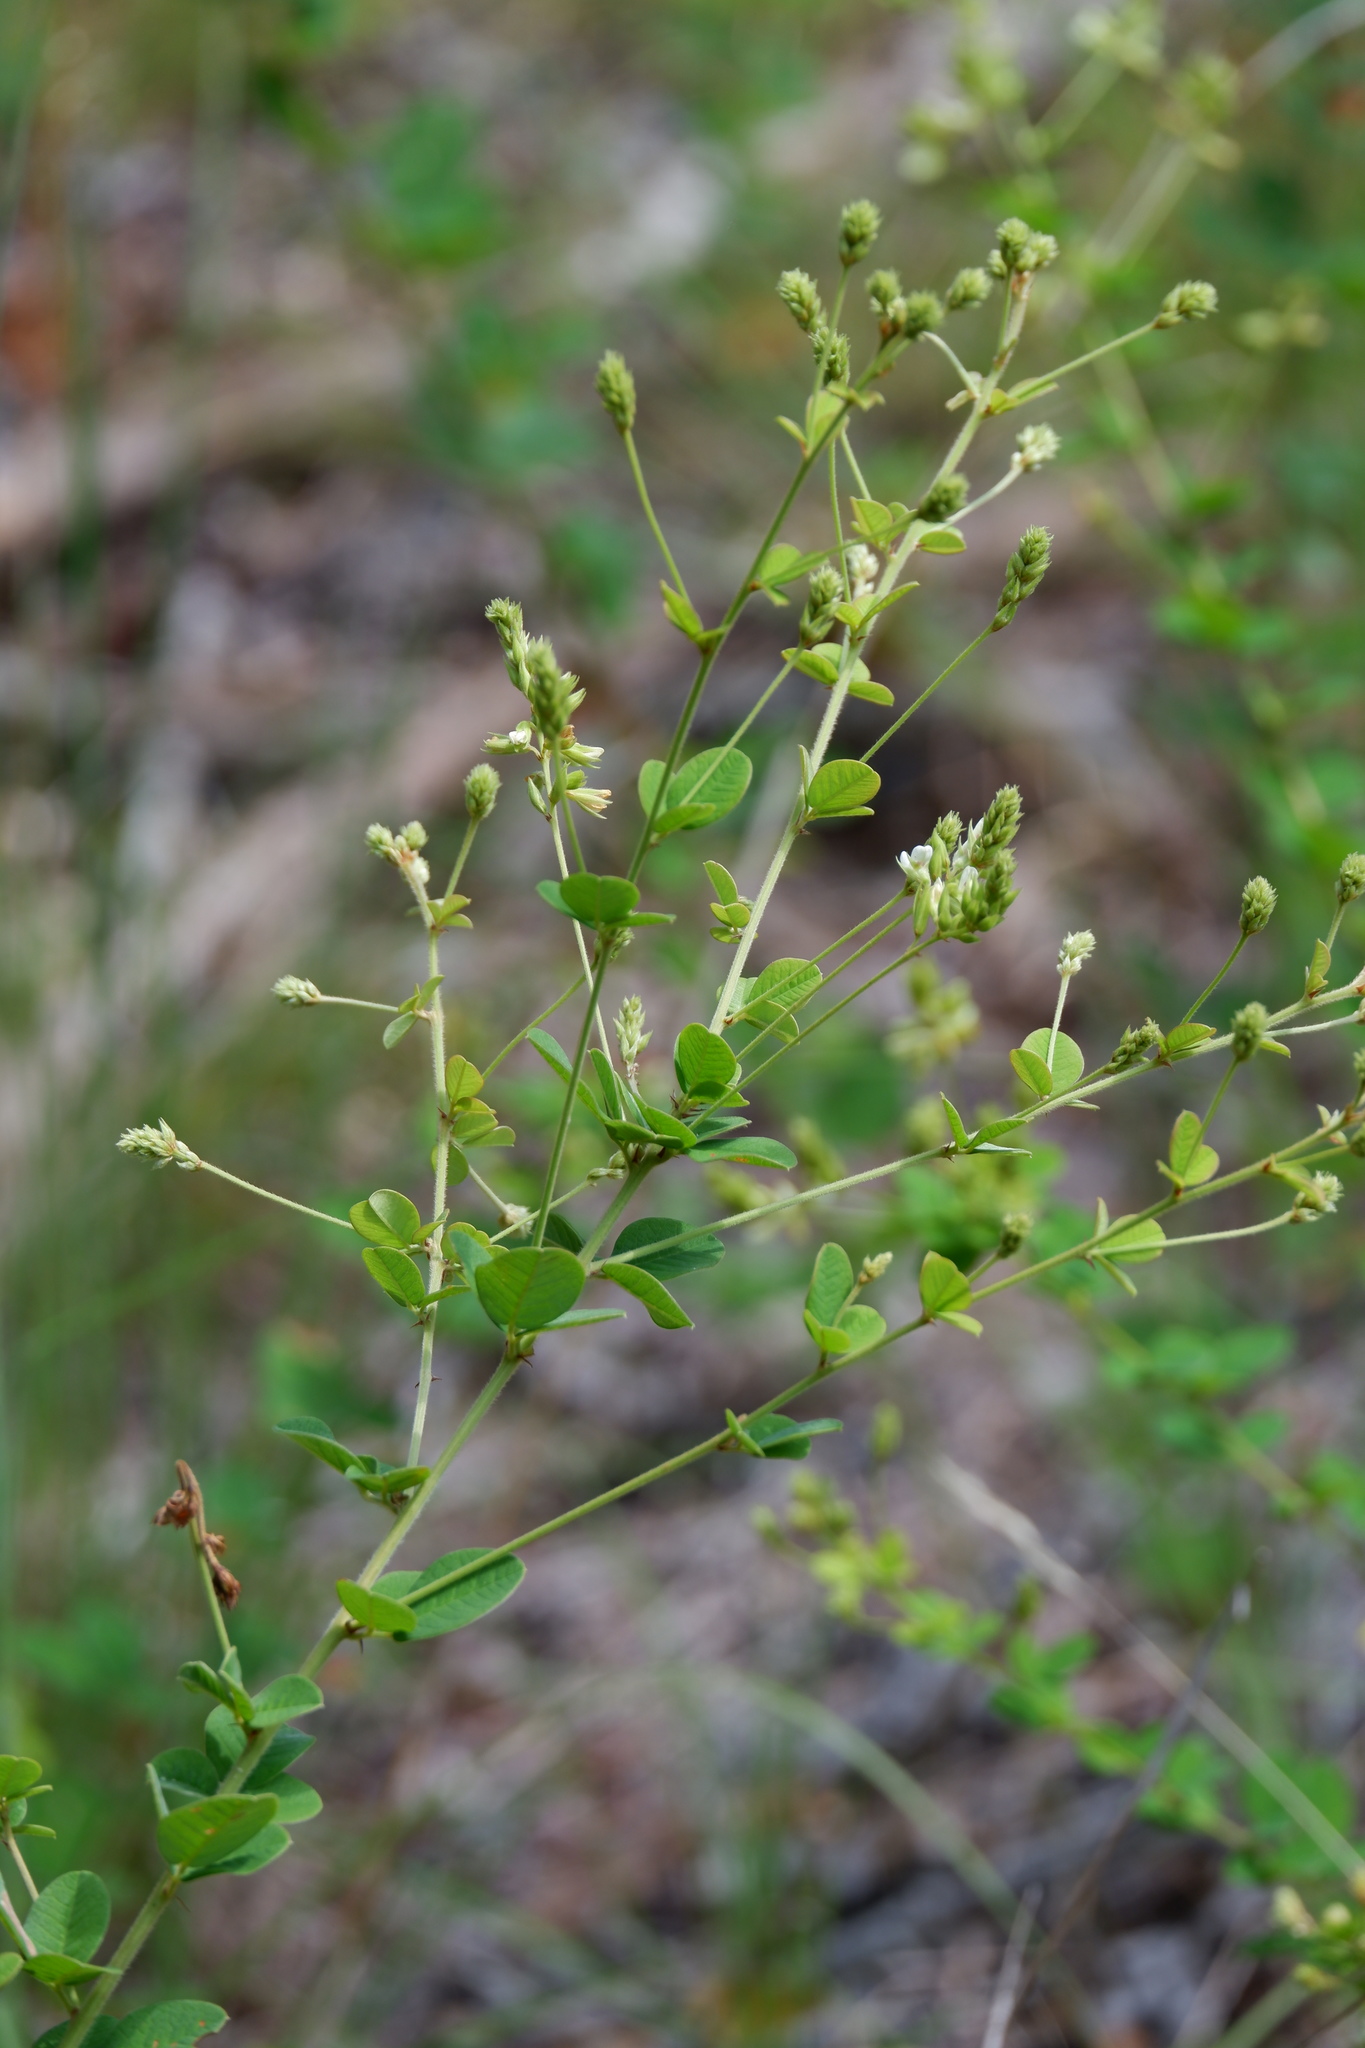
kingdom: Plantae
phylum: Tracheophyta
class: Magnoliopsida
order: Fabales
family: Fabaceae
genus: Lespedeza
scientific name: Lespedeza hirta
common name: Hairy lespedeza
